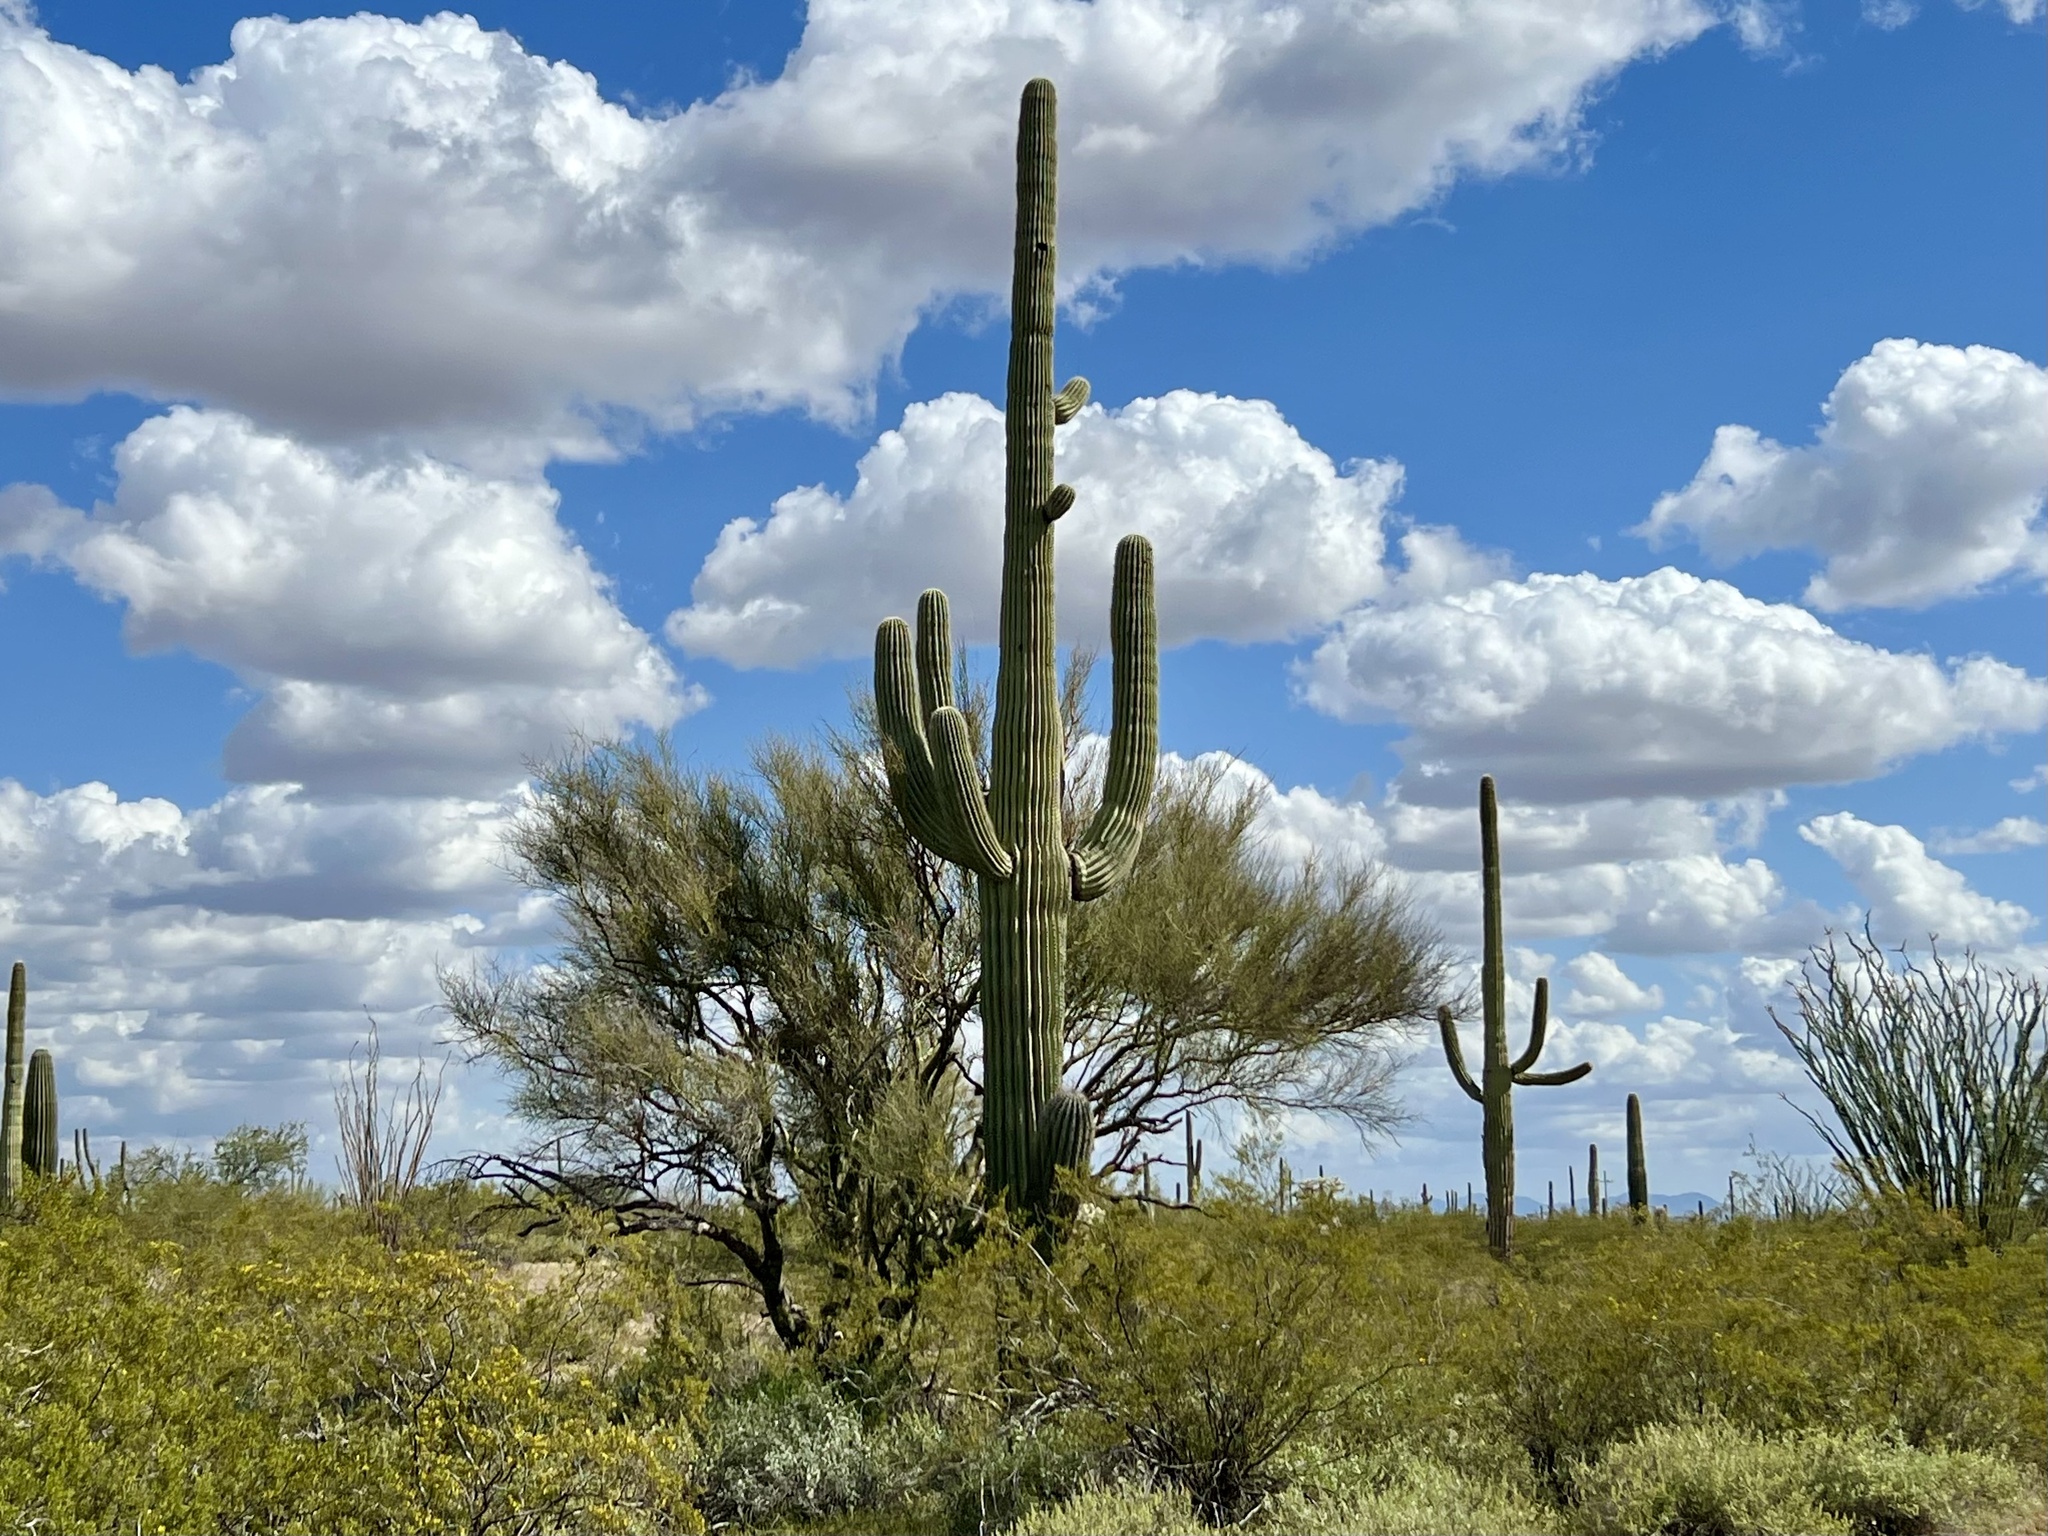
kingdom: Plantae
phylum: Tracheophyta
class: Magnoliopsida
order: Caryophyllales
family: Cactaceae
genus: Carnegiea
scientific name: Carnegiea gigantea
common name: Saguaro
